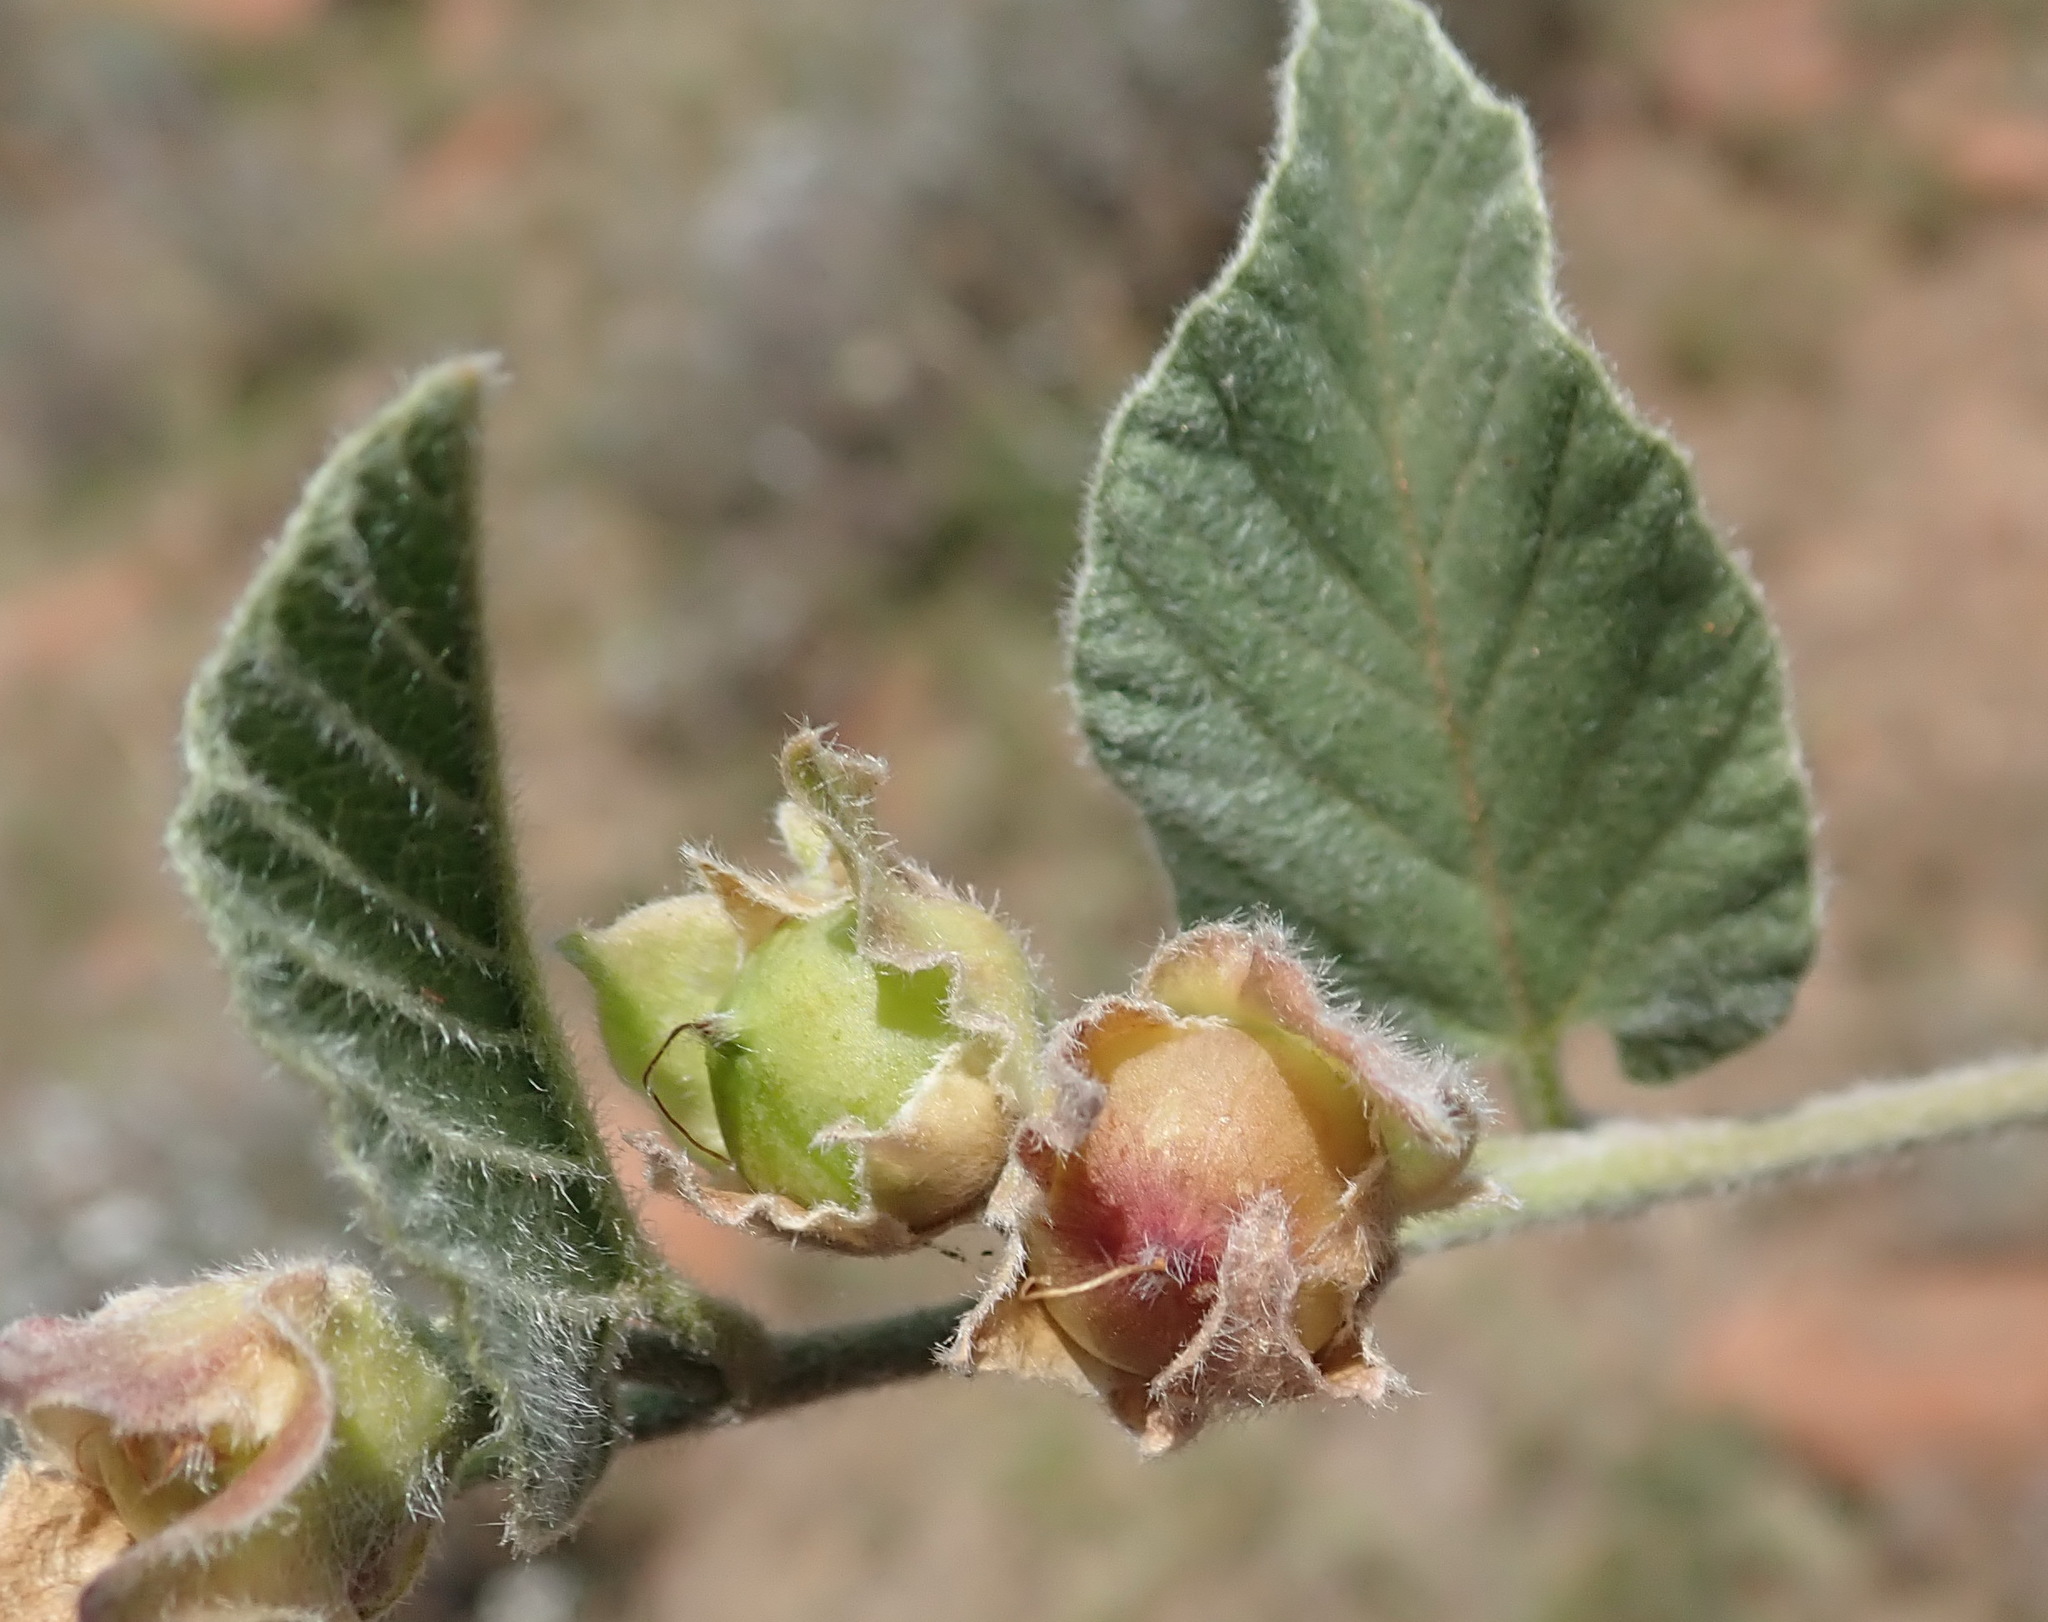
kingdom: Plantae
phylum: Tracheophyta
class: Magnoliopsida
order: Solanales
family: Convolvulaceae
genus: Convolvulus
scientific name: Convolvulus natalensis
